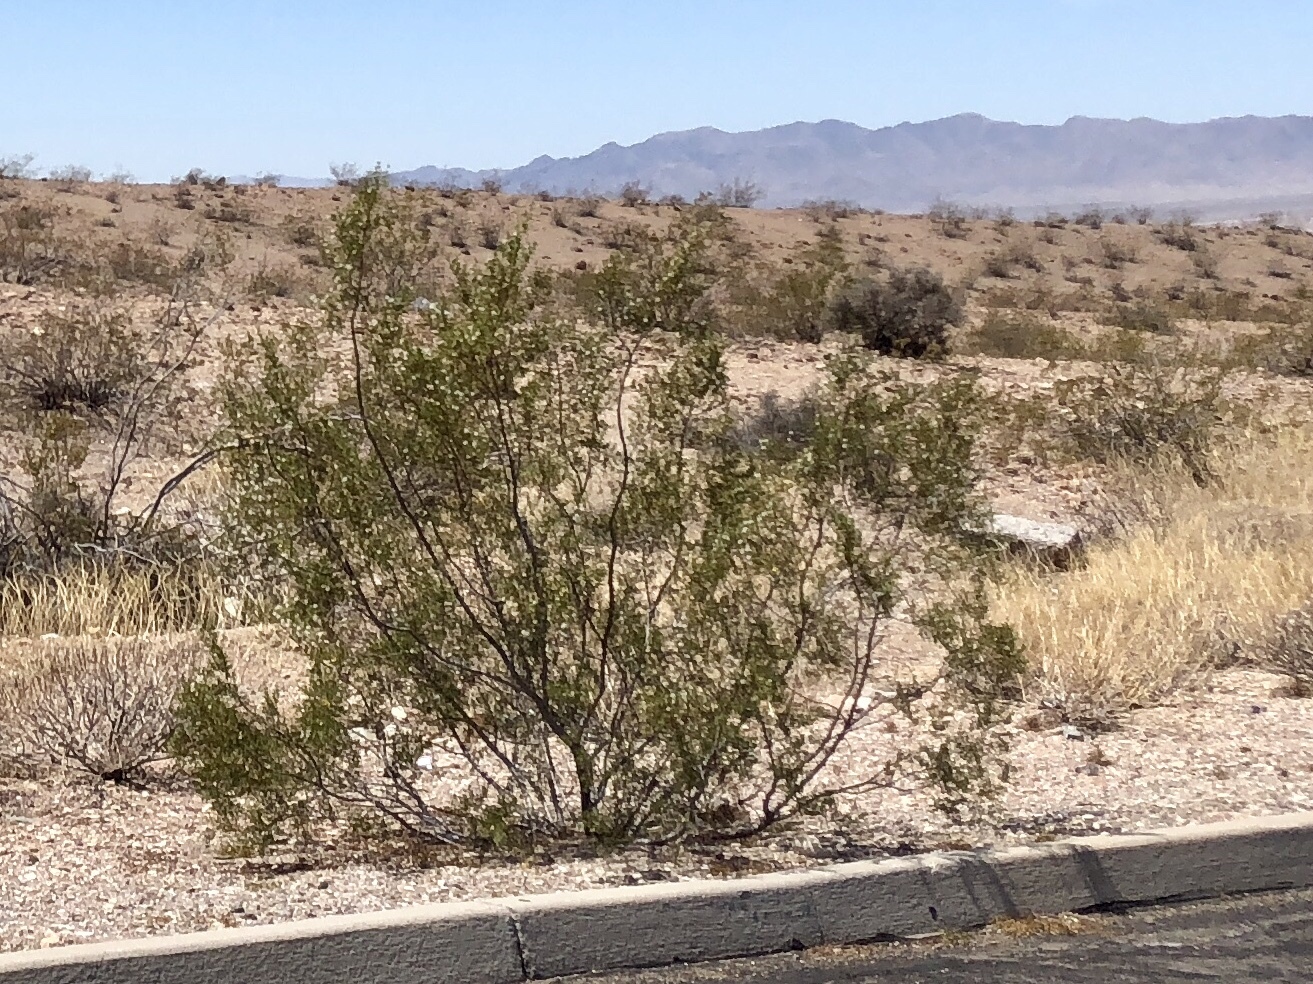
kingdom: Plantae
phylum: Tracheophyta
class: Magnoliopsida
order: Zygophyllales
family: Zygophyllaceae
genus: Larrea
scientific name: Larrea tridentata
